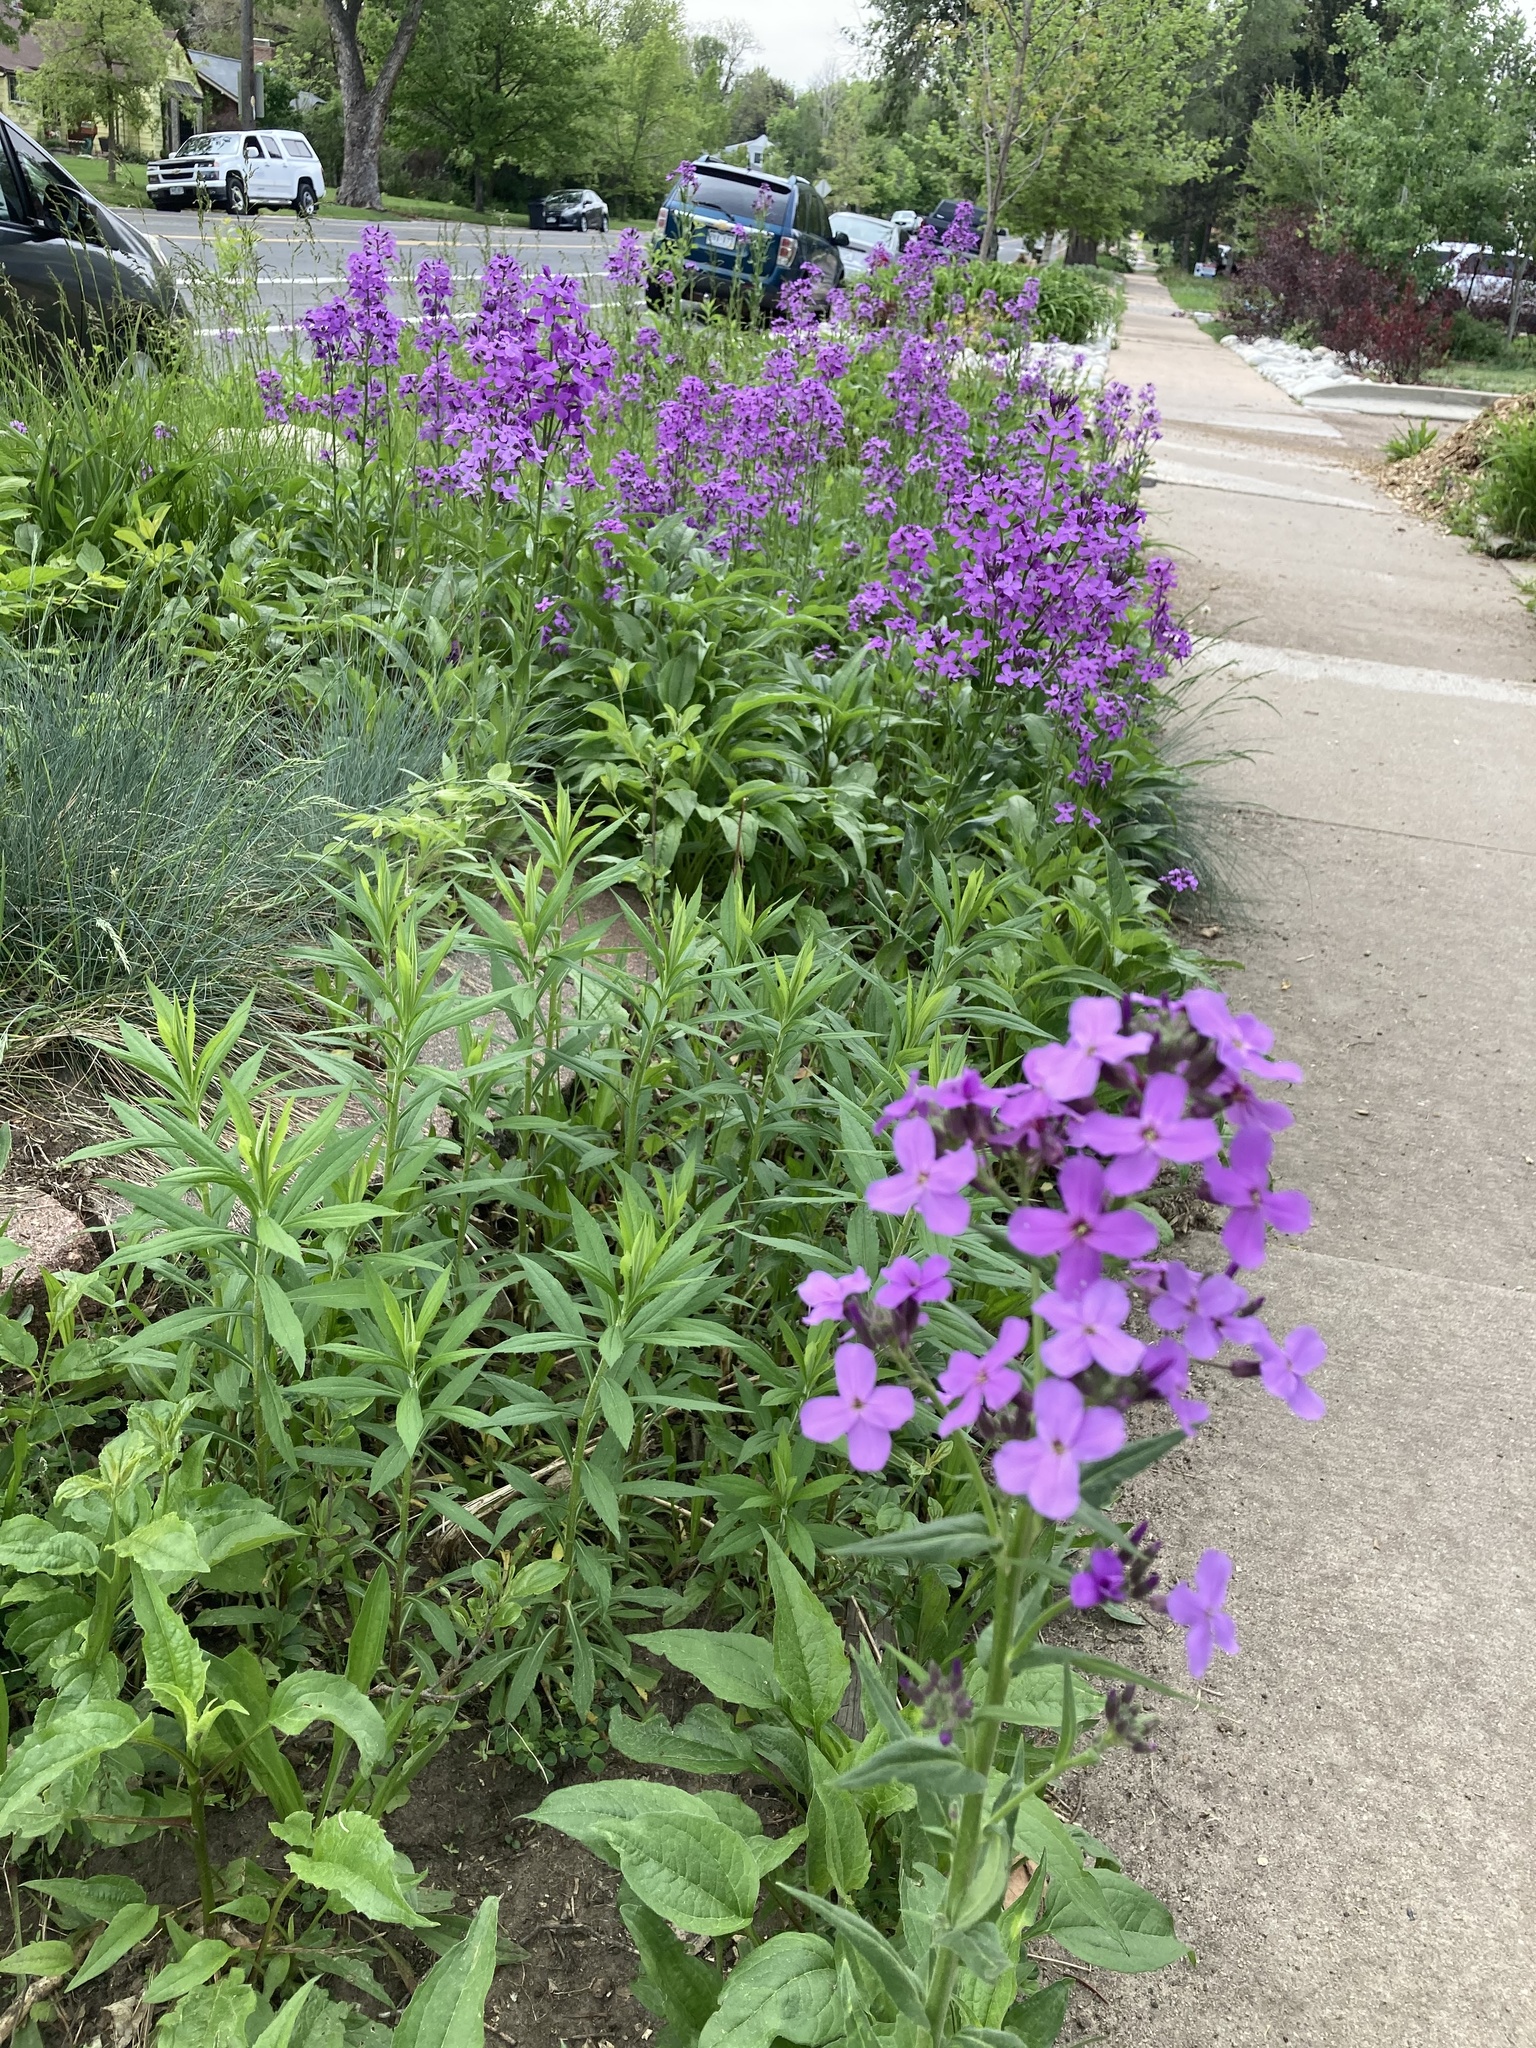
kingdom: Plantae
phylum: Tracheophyta
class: Magnoliopsida
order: Brassicales
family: Brassicaceae
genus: Hesperis
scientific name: Hesperis matronalis
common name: Dame's-violet
